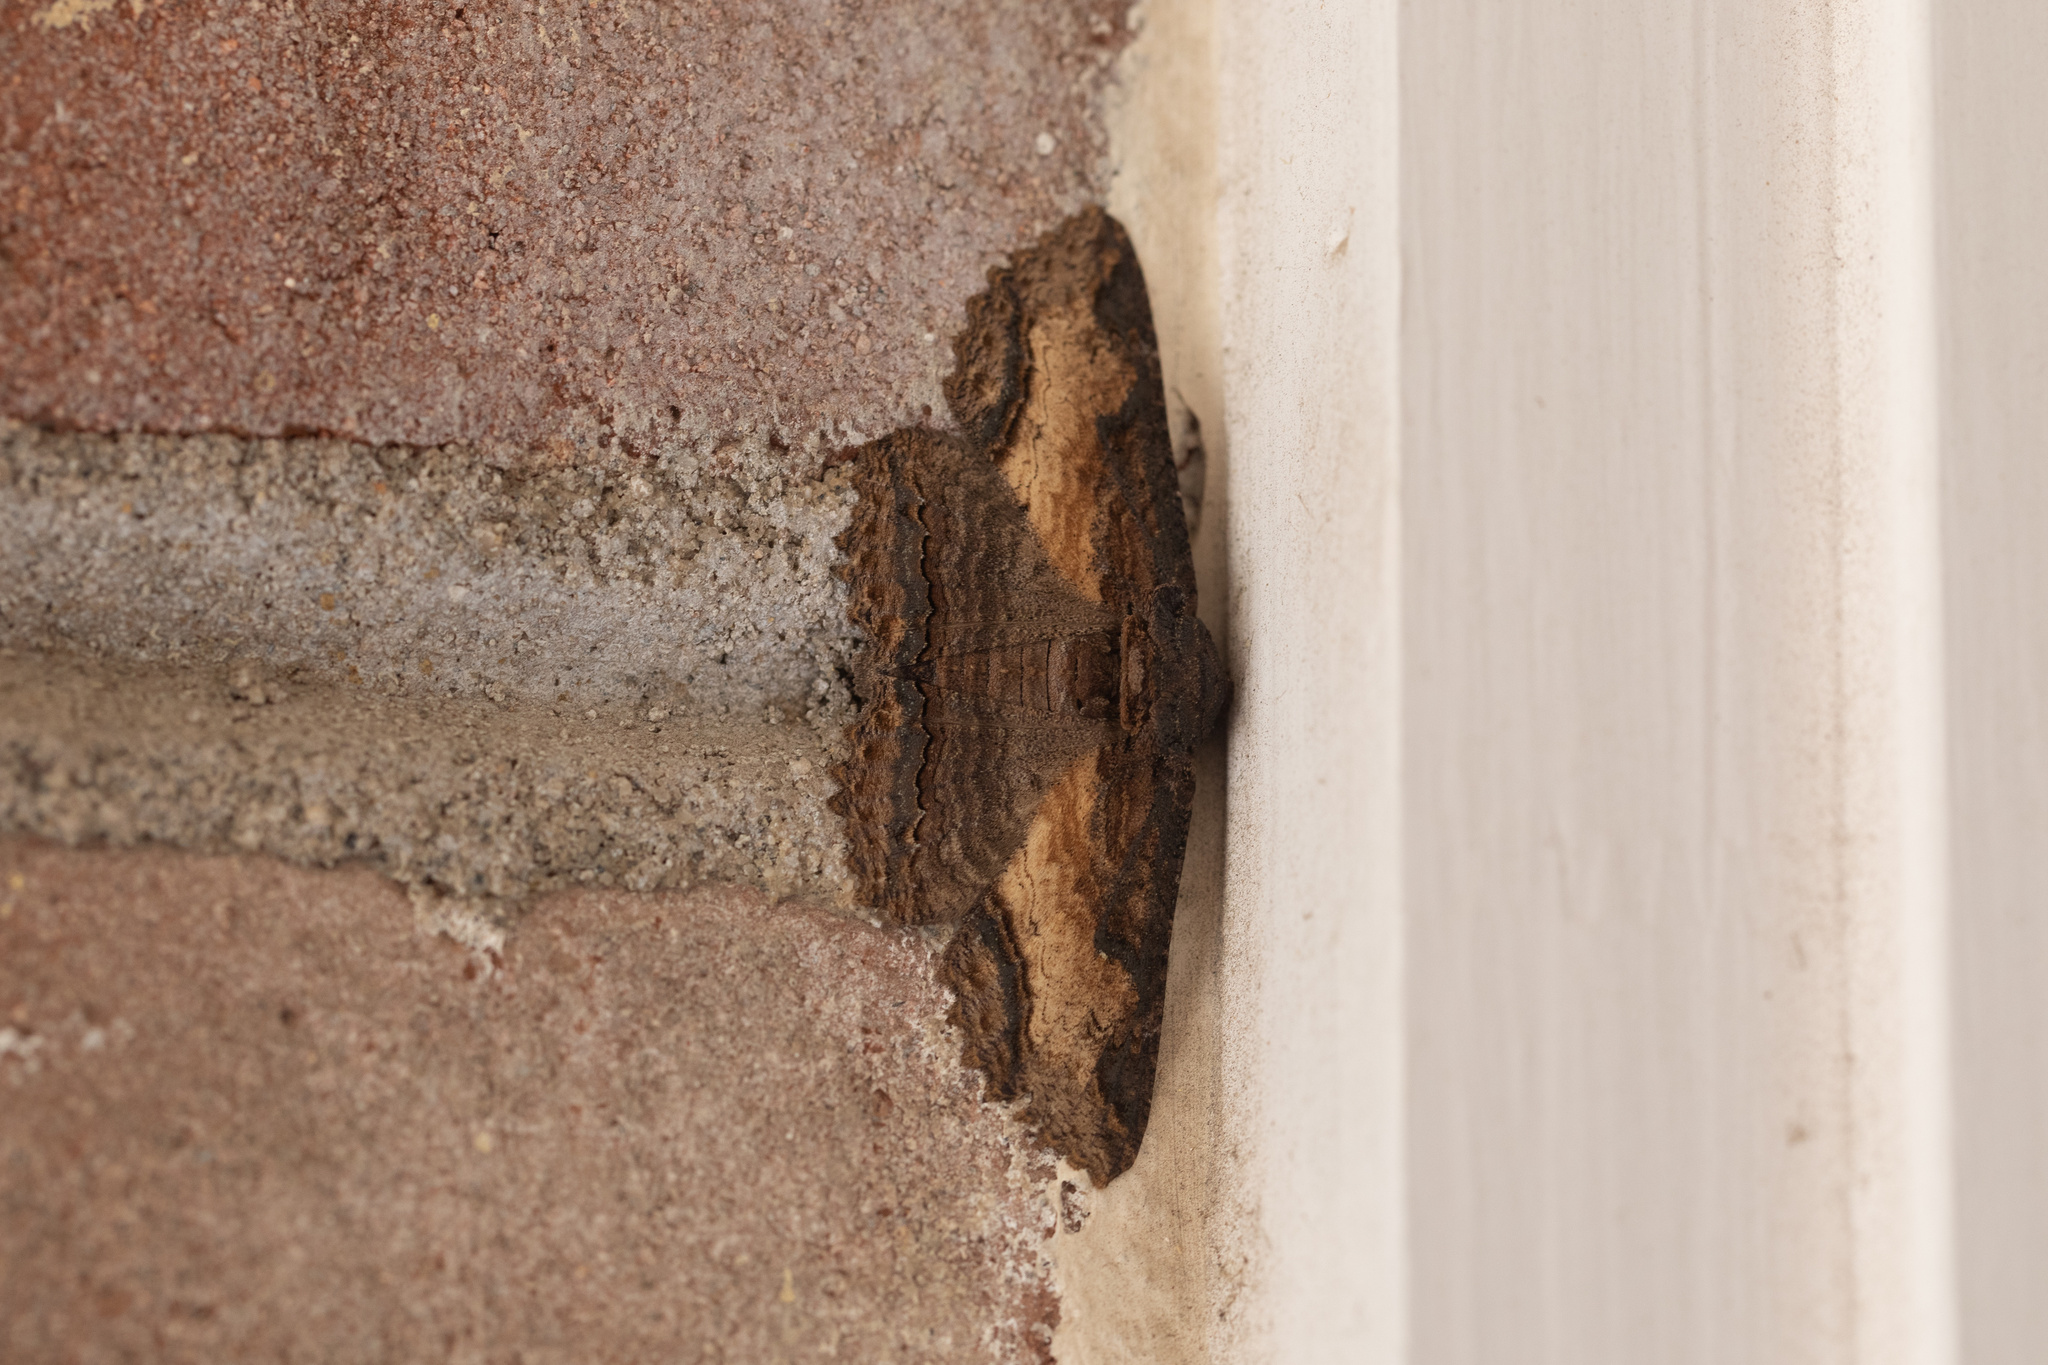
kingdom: Animalia
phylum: Arthropoda
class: Insecta
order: Lepidoptera
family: Erebidae
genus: Zale
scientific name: Zale lunata
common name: Lunate zale moth
